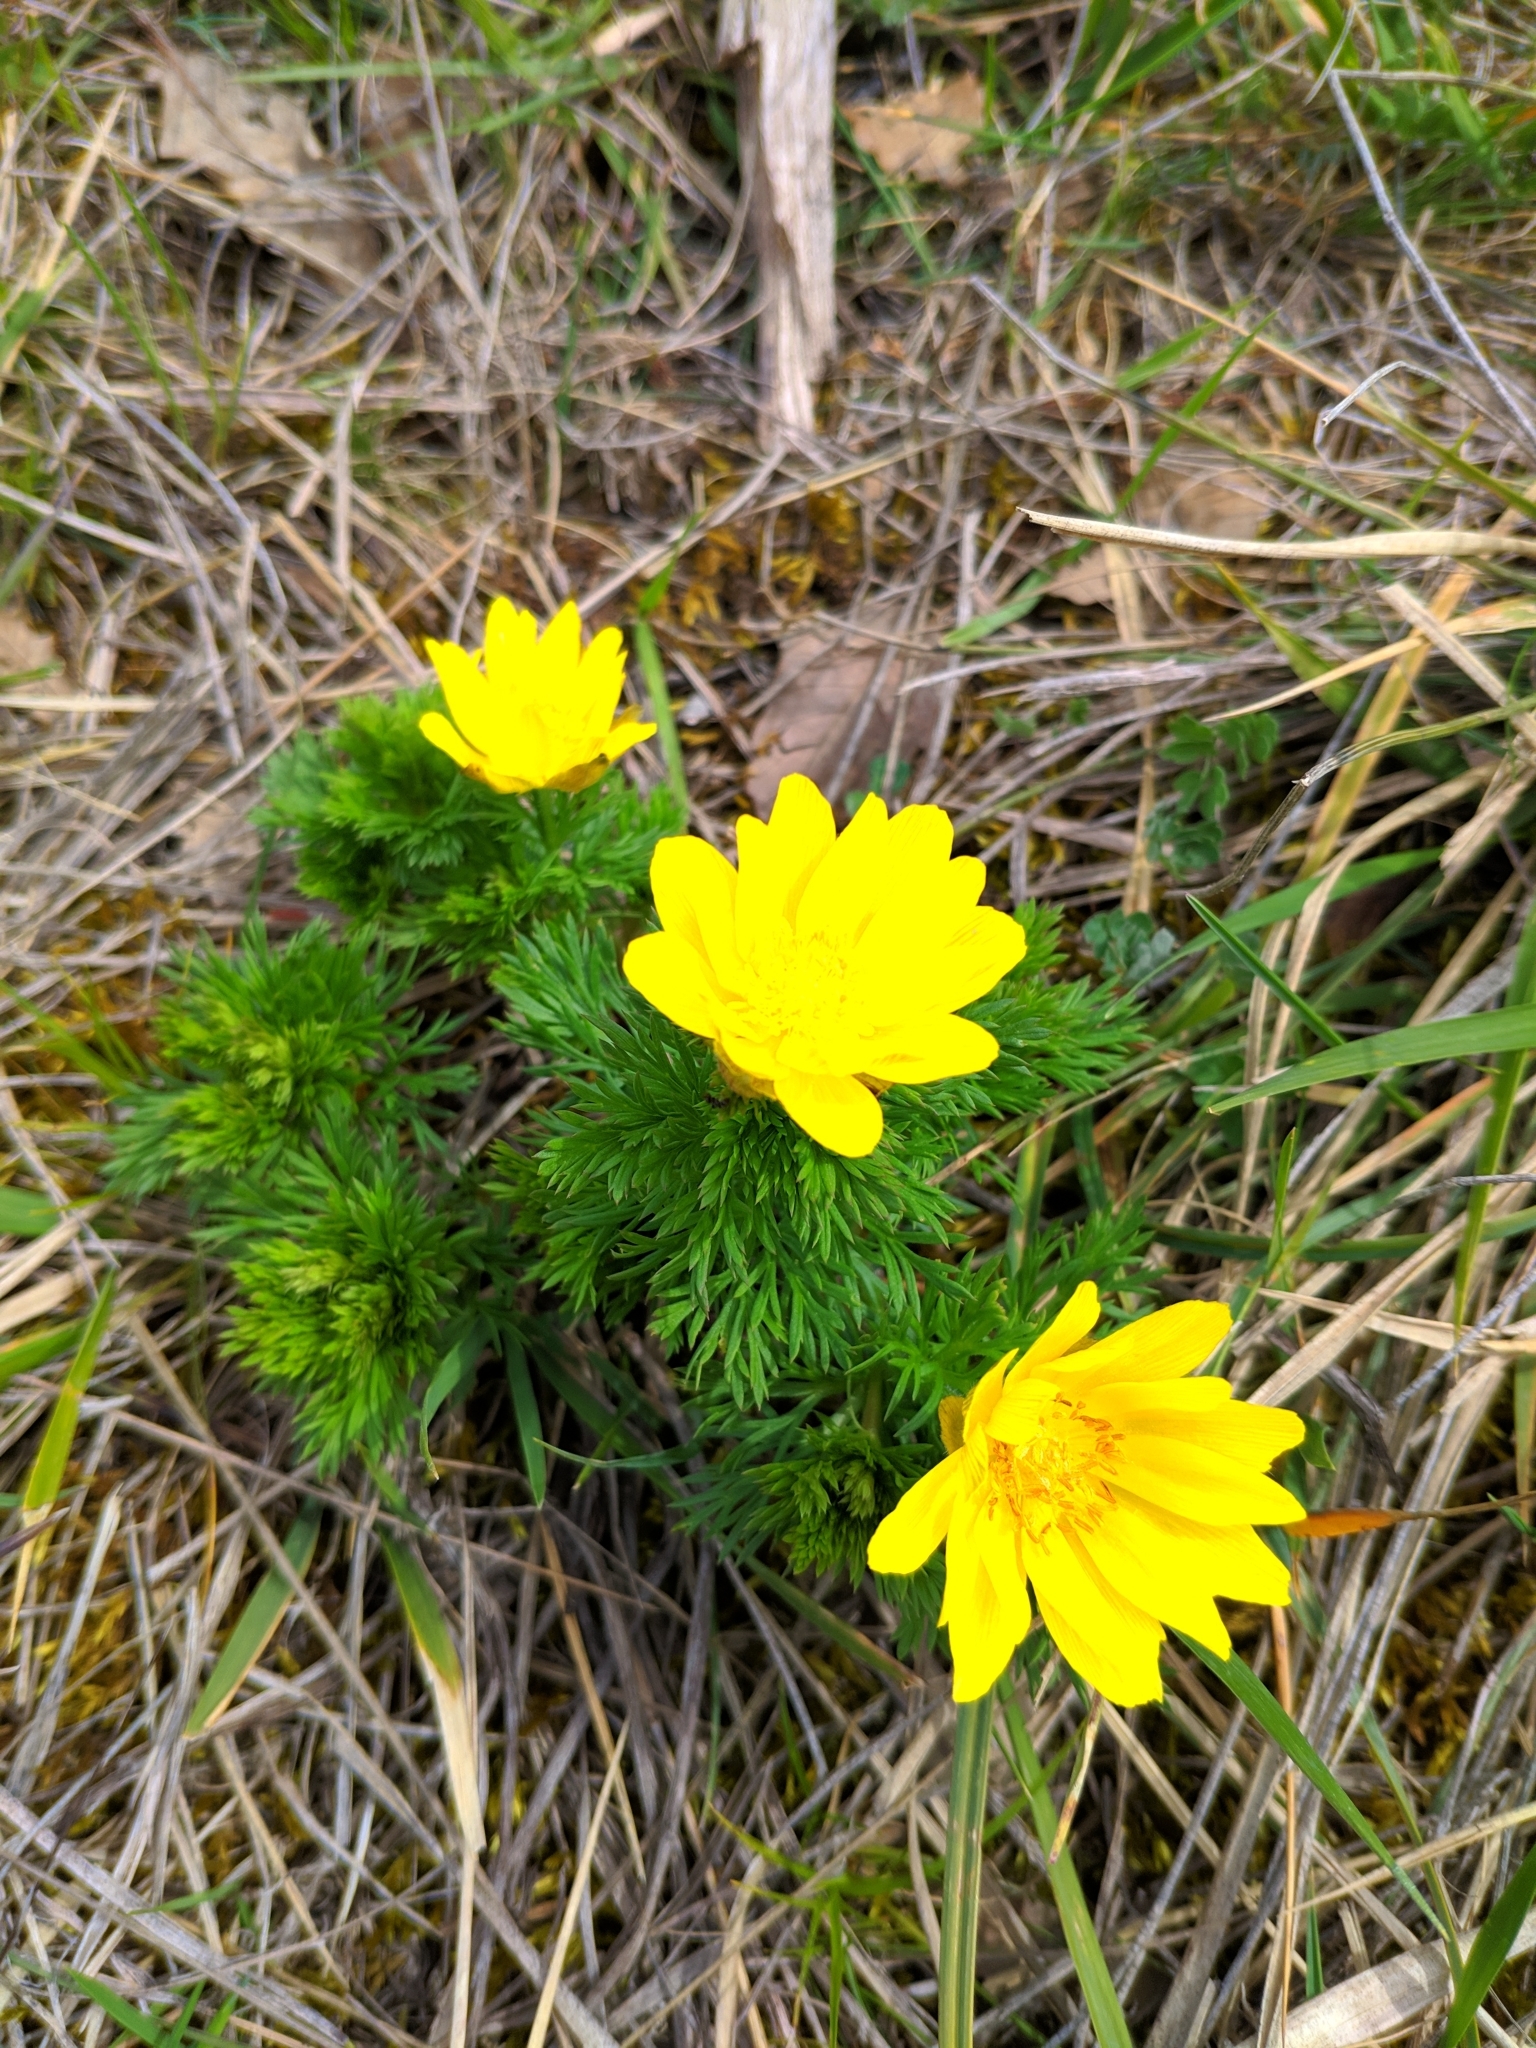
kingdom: Plantae
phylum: Tracheophyta
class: Magnoliopsida
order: Ranunculales
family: Ranunculaceae
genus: Adonis
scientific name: Adonis vernalis
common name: Yellow pheasants-eye
